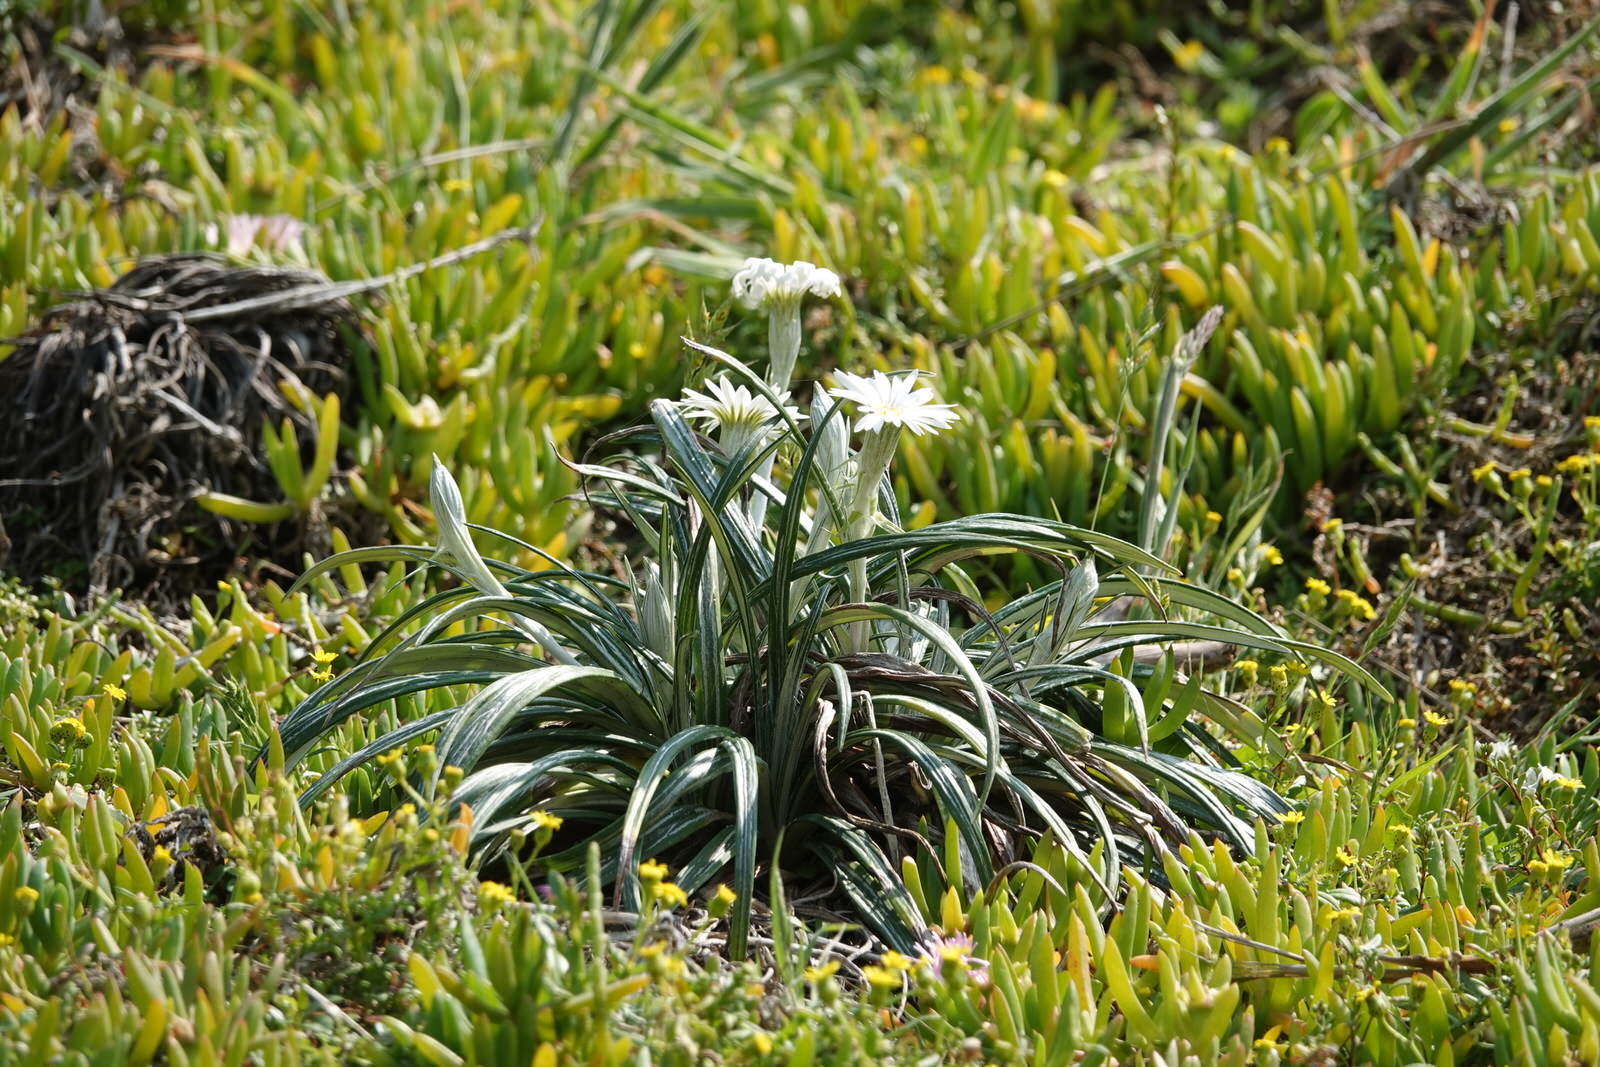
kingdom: Plantae
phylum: Tracheophyta
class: Magnoliopsida
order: Asterales
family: Asteraceae
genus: Celmisia
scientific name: Celmisia major
